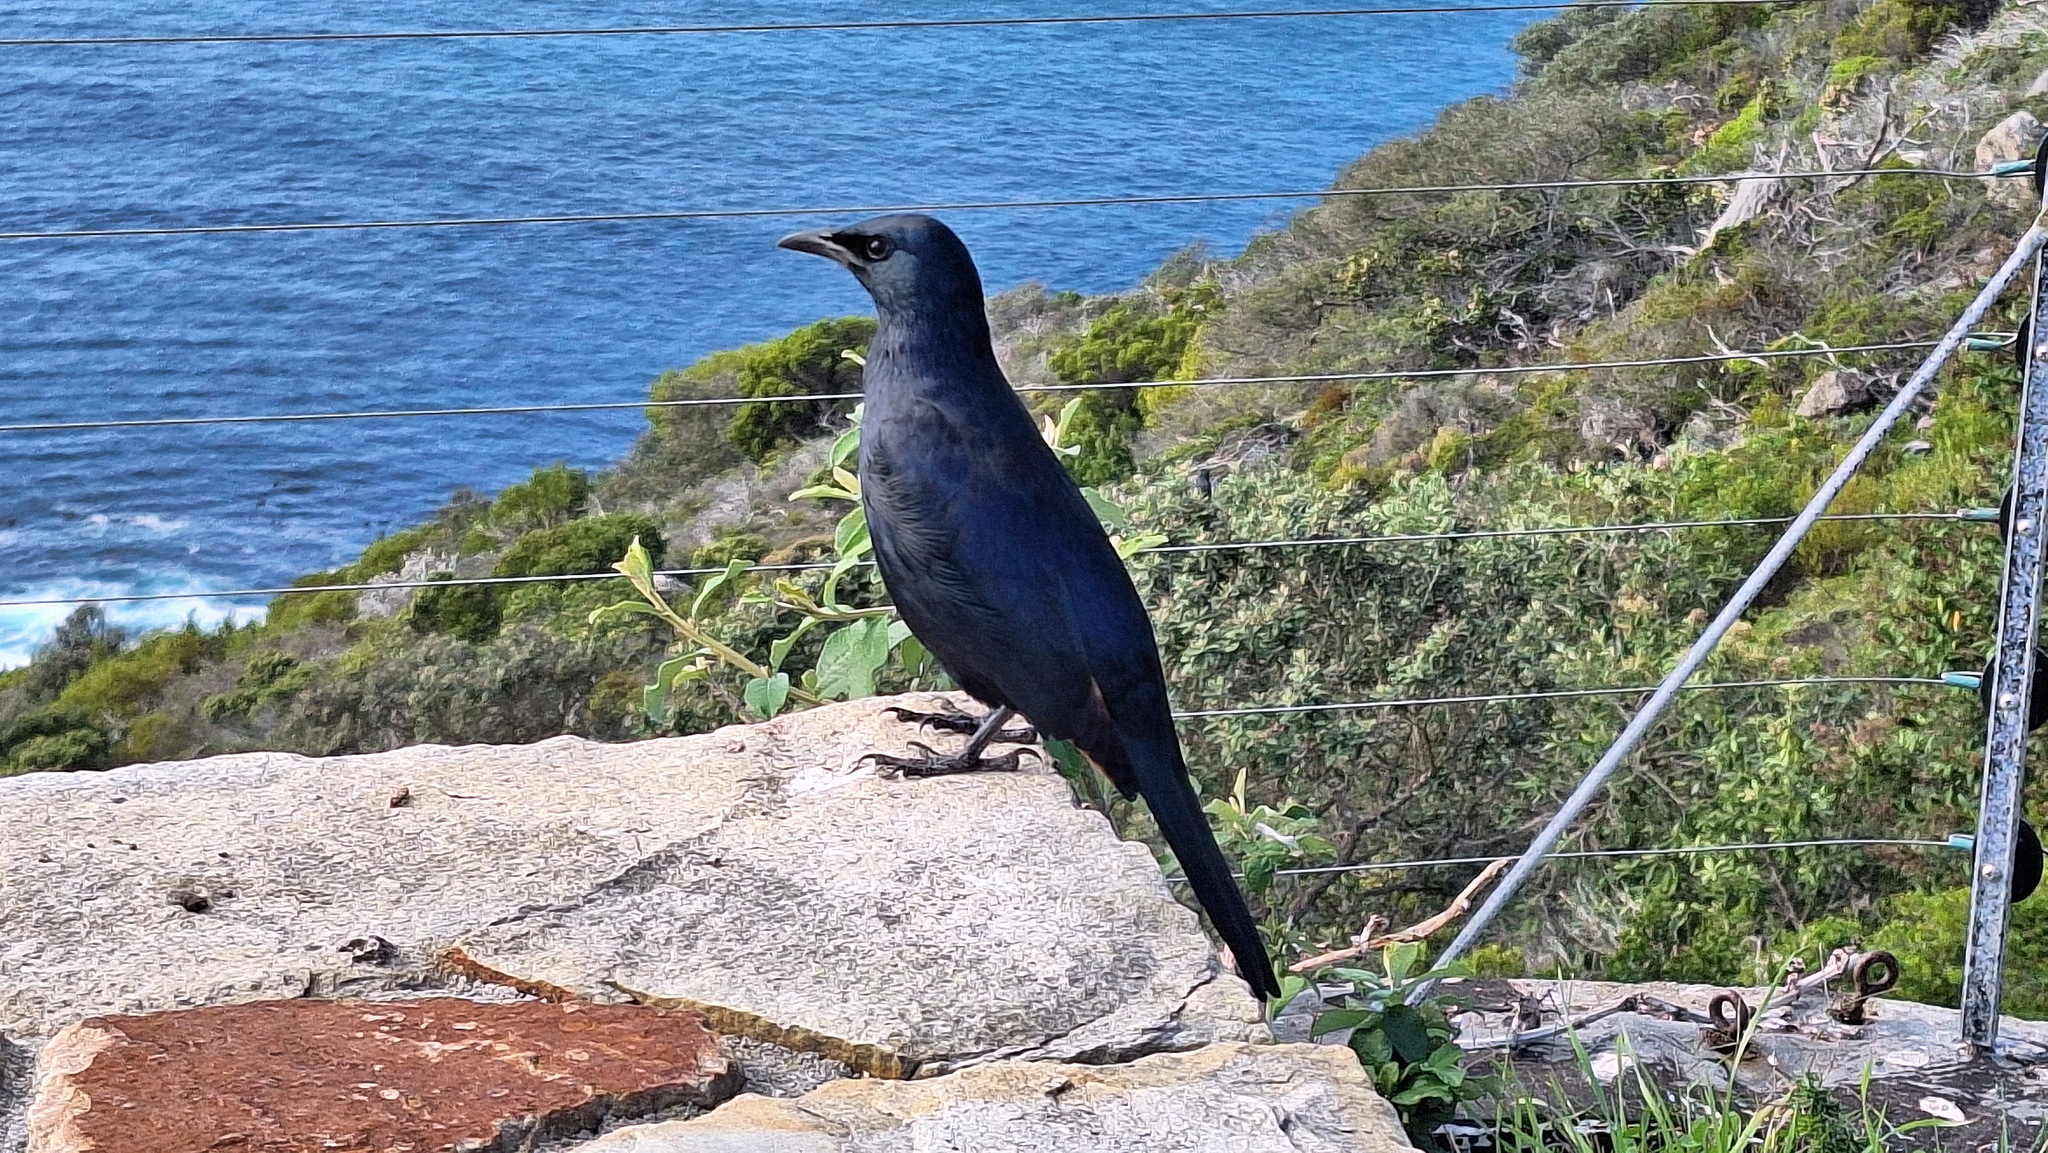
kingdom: Animalia
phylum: Chordata
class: Aves
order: Passeriformes
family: Sturnidae
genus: Onychognathus
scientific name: Onychognathus morio
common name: Red-winged starling
